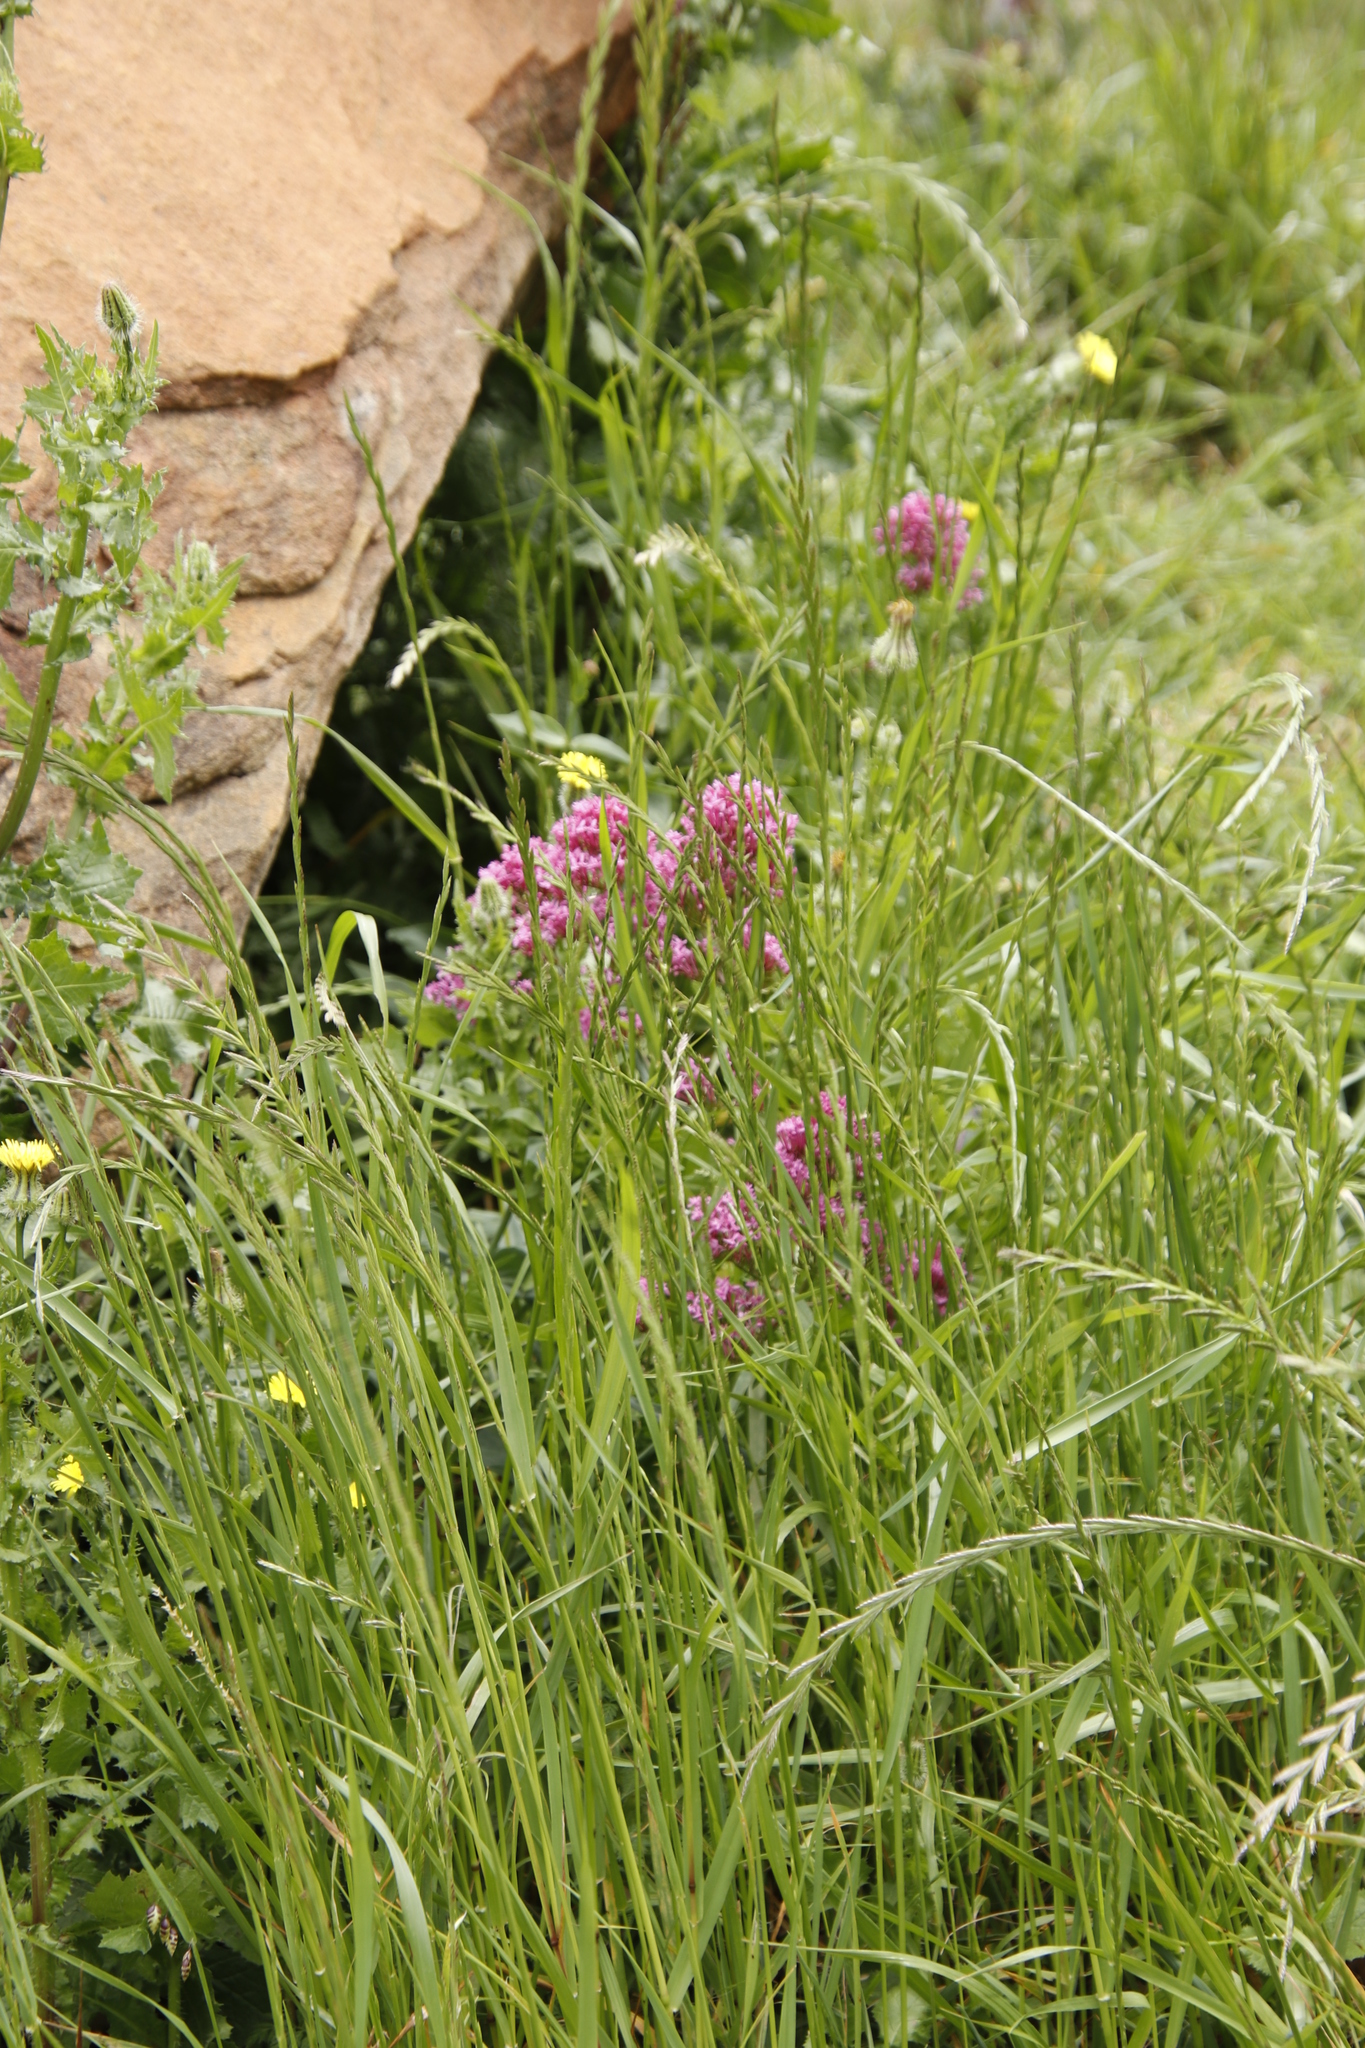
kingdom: Plantae
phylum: Tracheophyta
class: Magnoliopsida
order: Dipsacales
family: Caprifoliaceae
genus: Centranthus
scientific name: Centranthus ruber
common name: Red valerian
